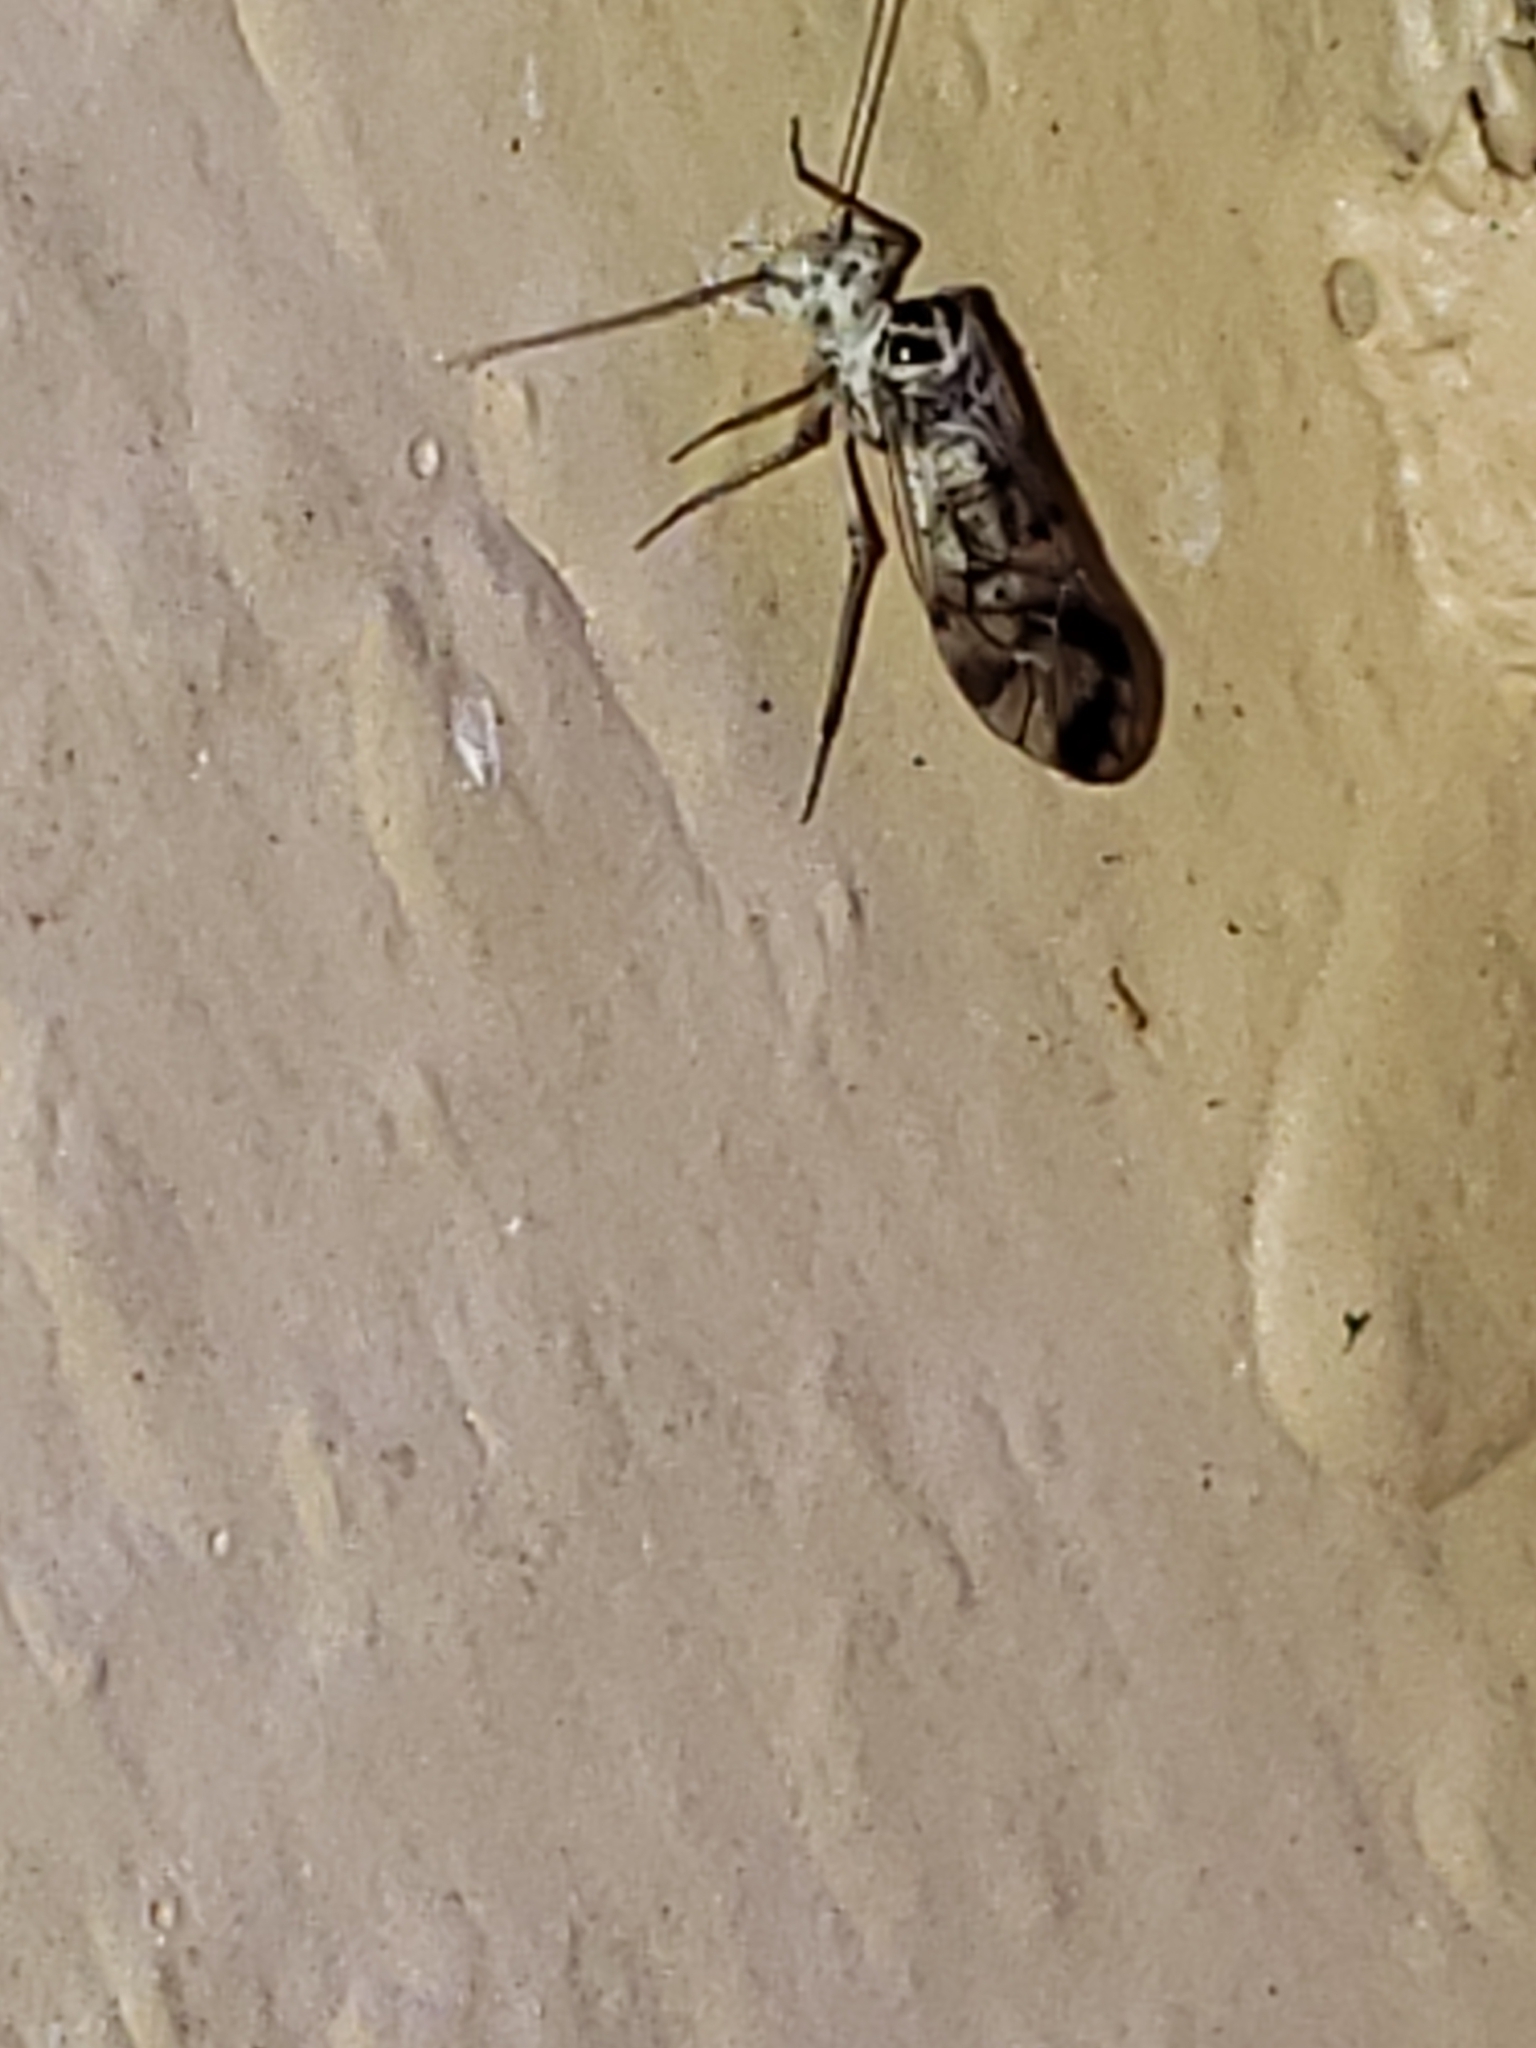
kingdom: Animalia
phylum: Arthropoda
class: Insecta
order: Psocodea
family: Psocidae
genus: Metylophorus
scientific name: Metylophorus novaescotiae
